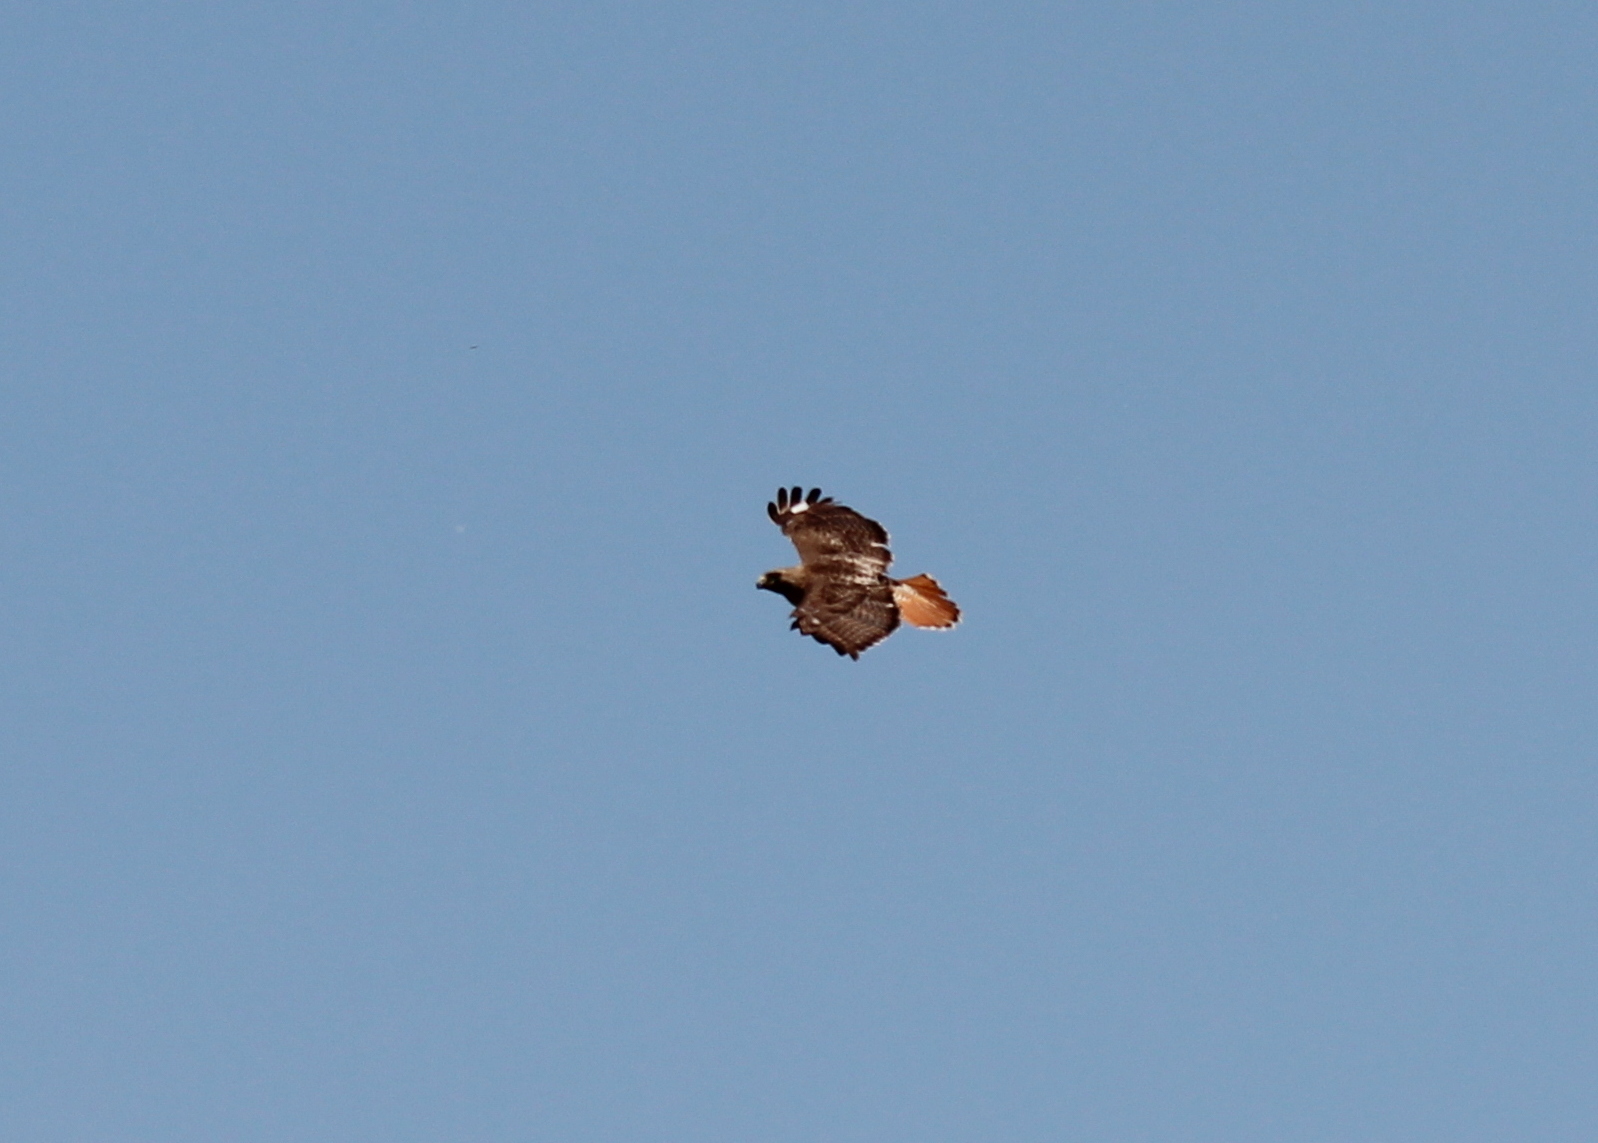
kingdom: Animalia
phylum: Chordata
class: Aves
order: Accipitriformes
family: Accipitridae
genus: Buteo
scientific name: Buteo jamaicensis
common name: Red-tailed hawk
